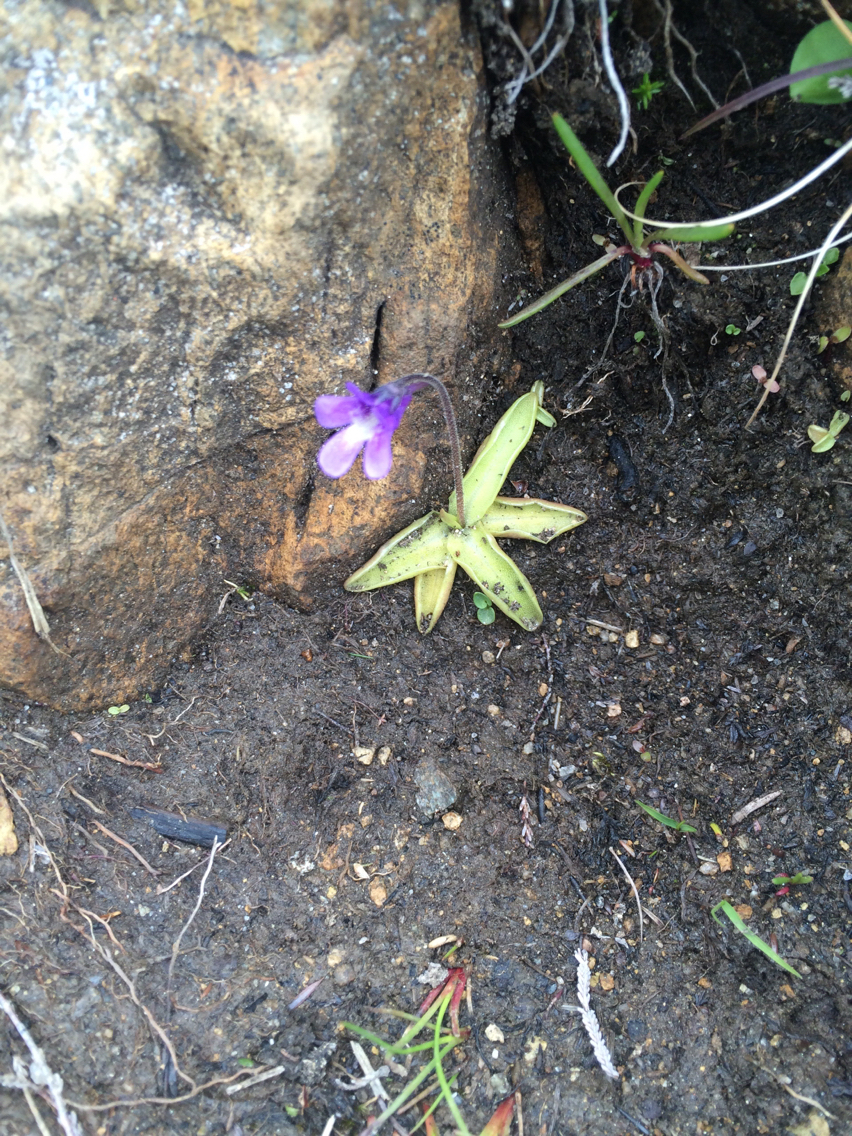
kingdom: Plantae
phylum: Tracheophyta
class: Magnoliopsida
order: Lamiales
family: Lentibulariaceae
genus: Pinguicula
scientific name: Pinguicula vulgaris
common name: Common butterwort
